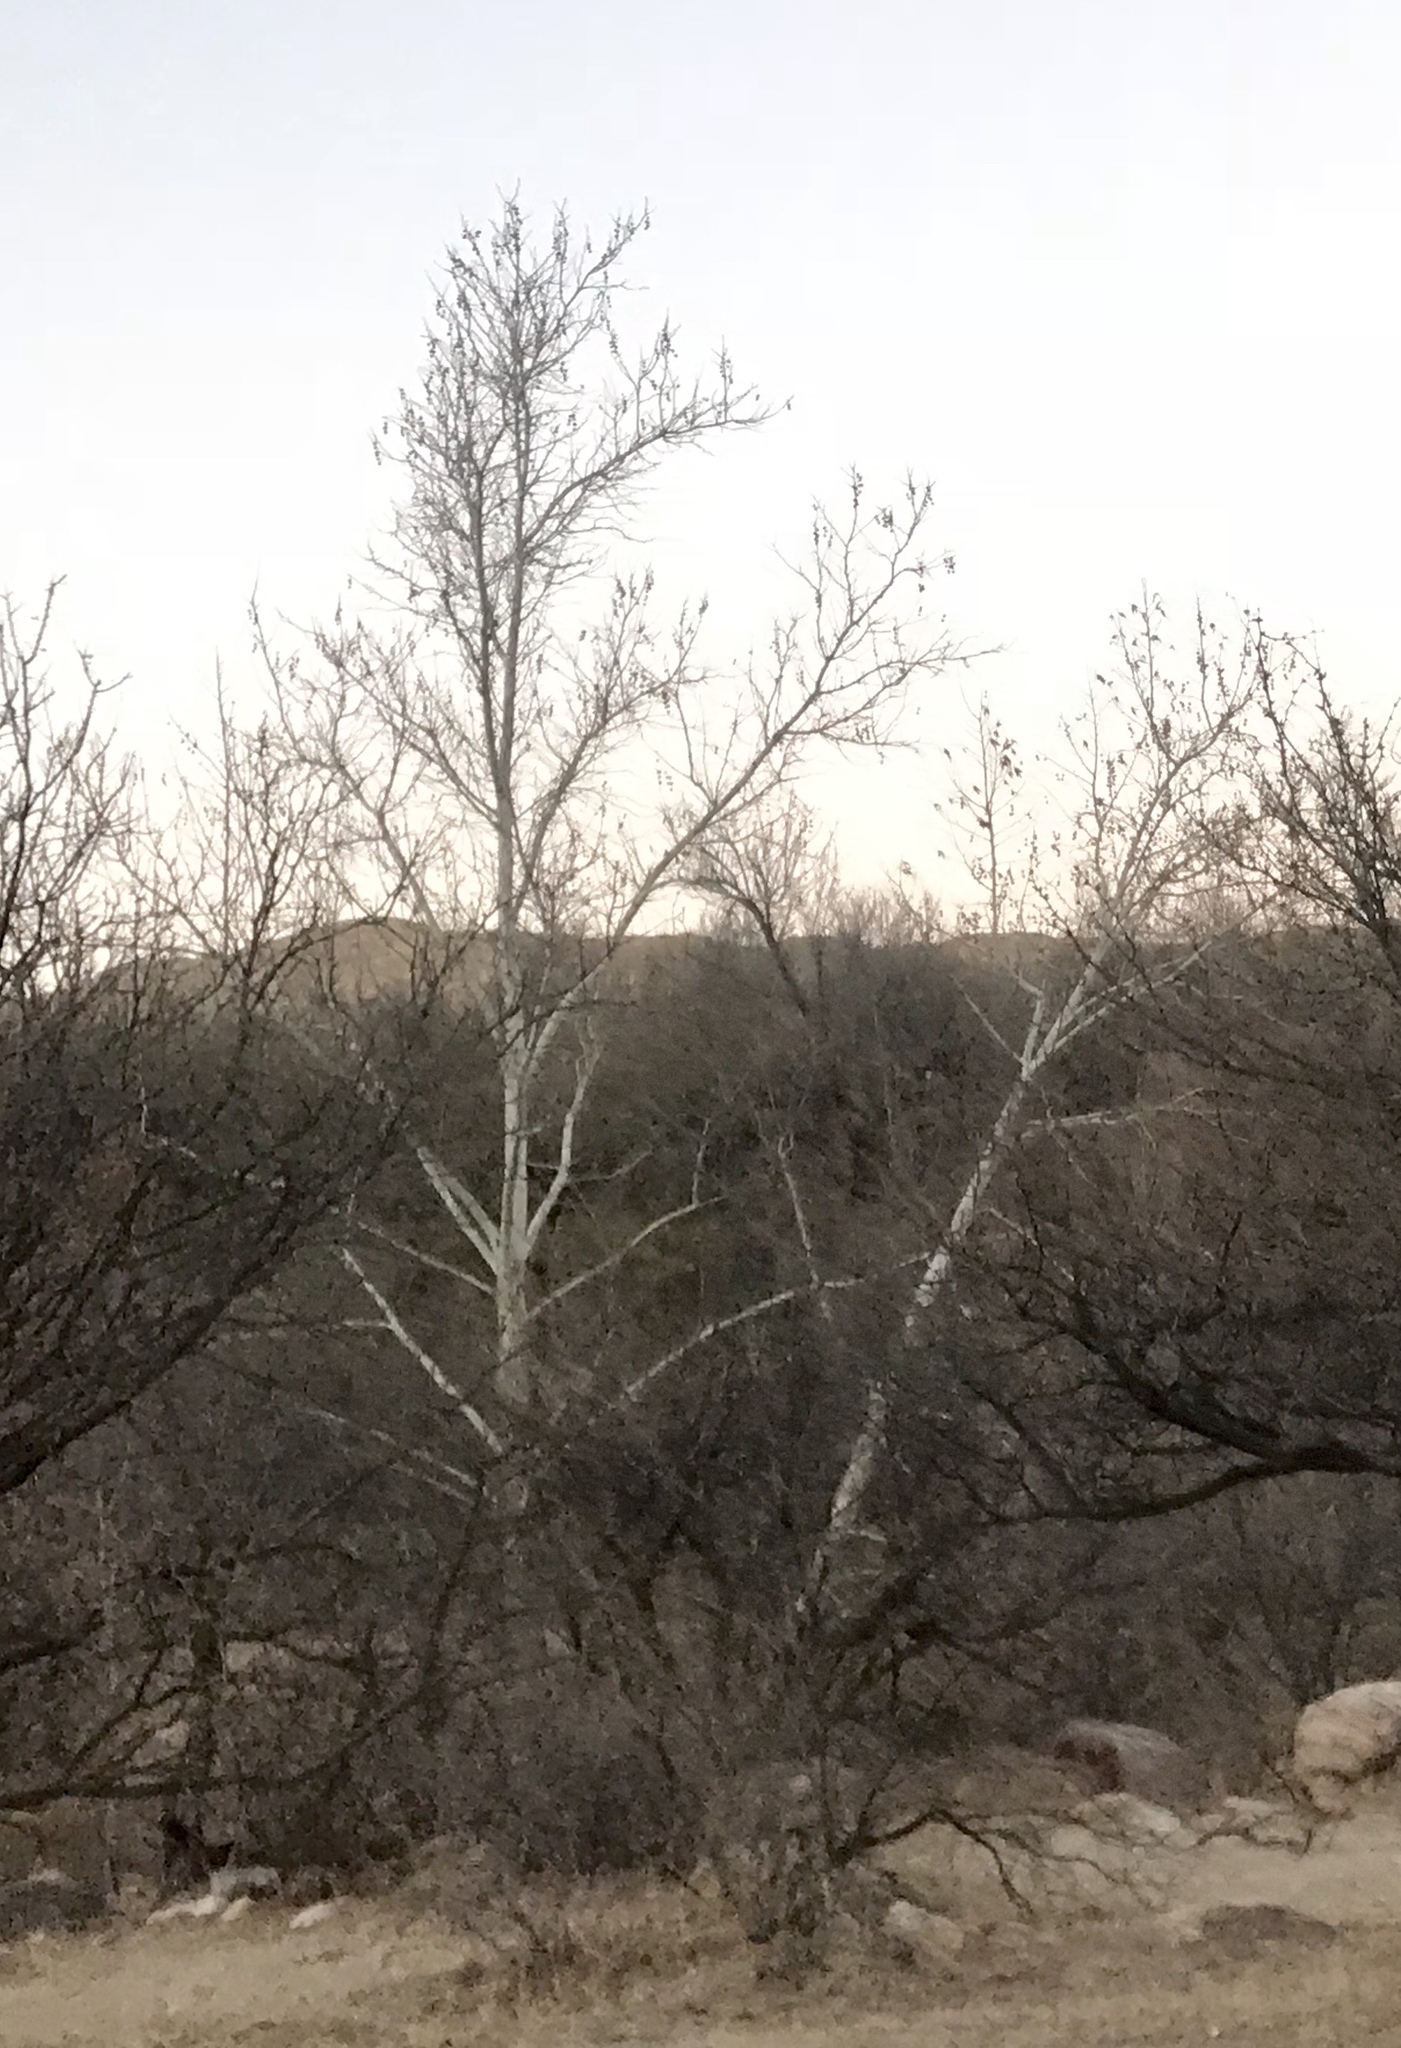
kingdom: Plantae
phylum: Tracheophyta
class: Magnoliopsida
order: Proteales
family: Platanaceae
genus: Platanus
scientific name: Platanus wrightii
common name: Arizona sycamore
